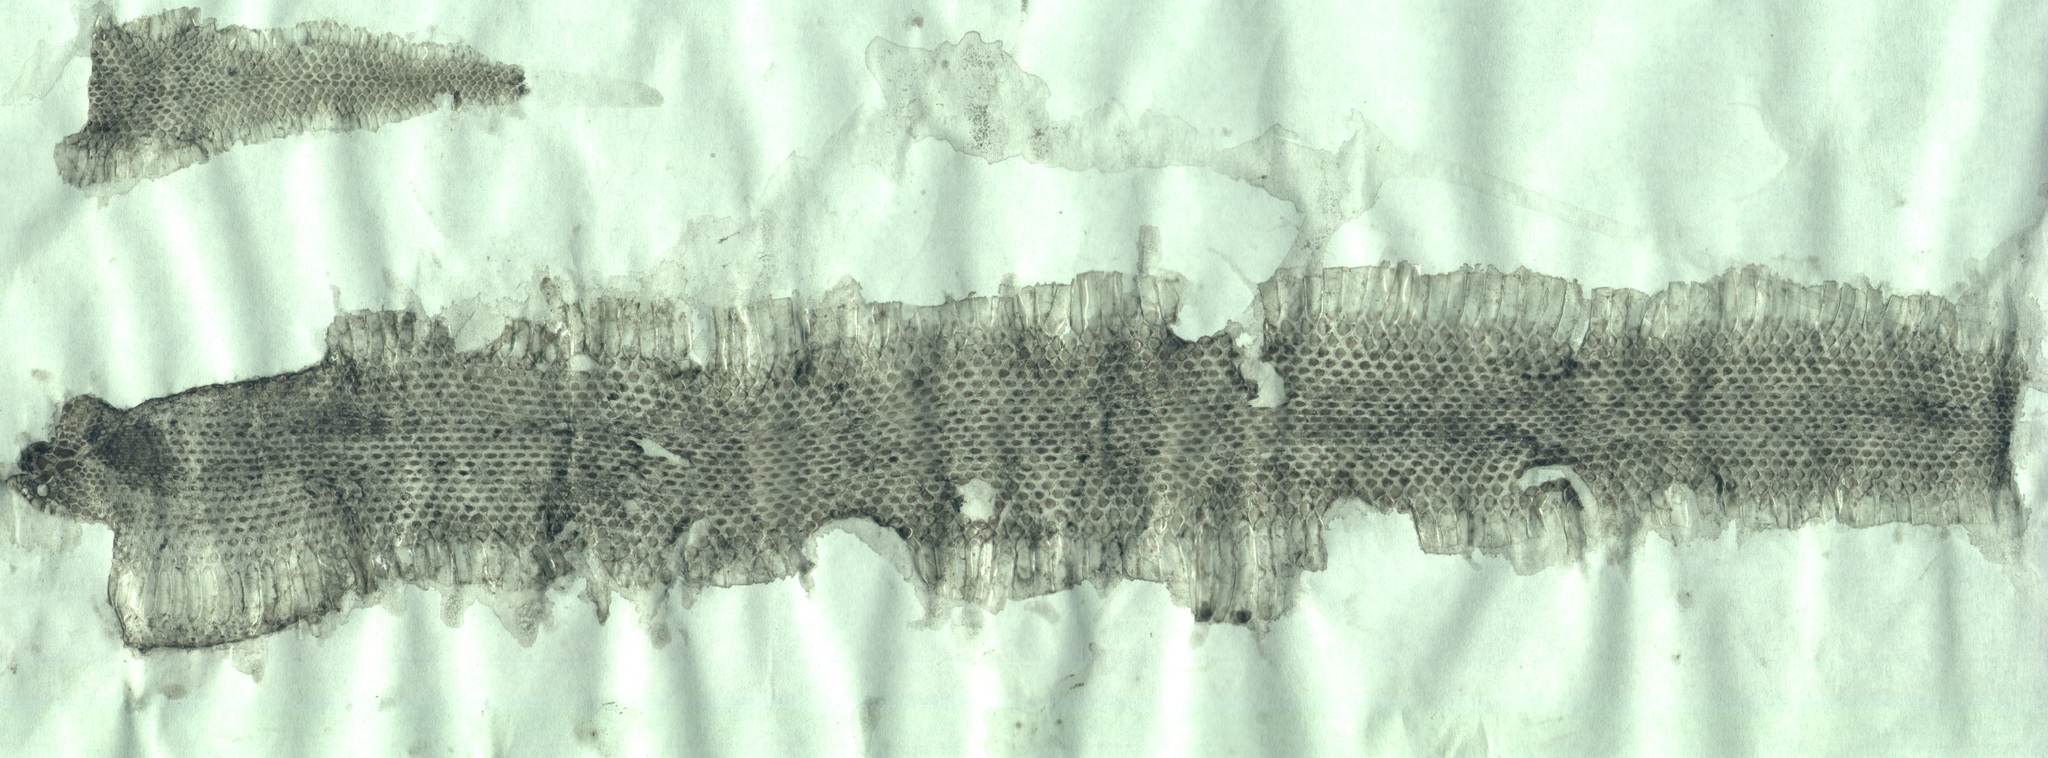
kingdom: Animalia
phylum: Chordata
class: Squamata
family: Viperidae
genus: Vipera
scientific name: Vipera eriwanensis
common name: Alburzi viper
